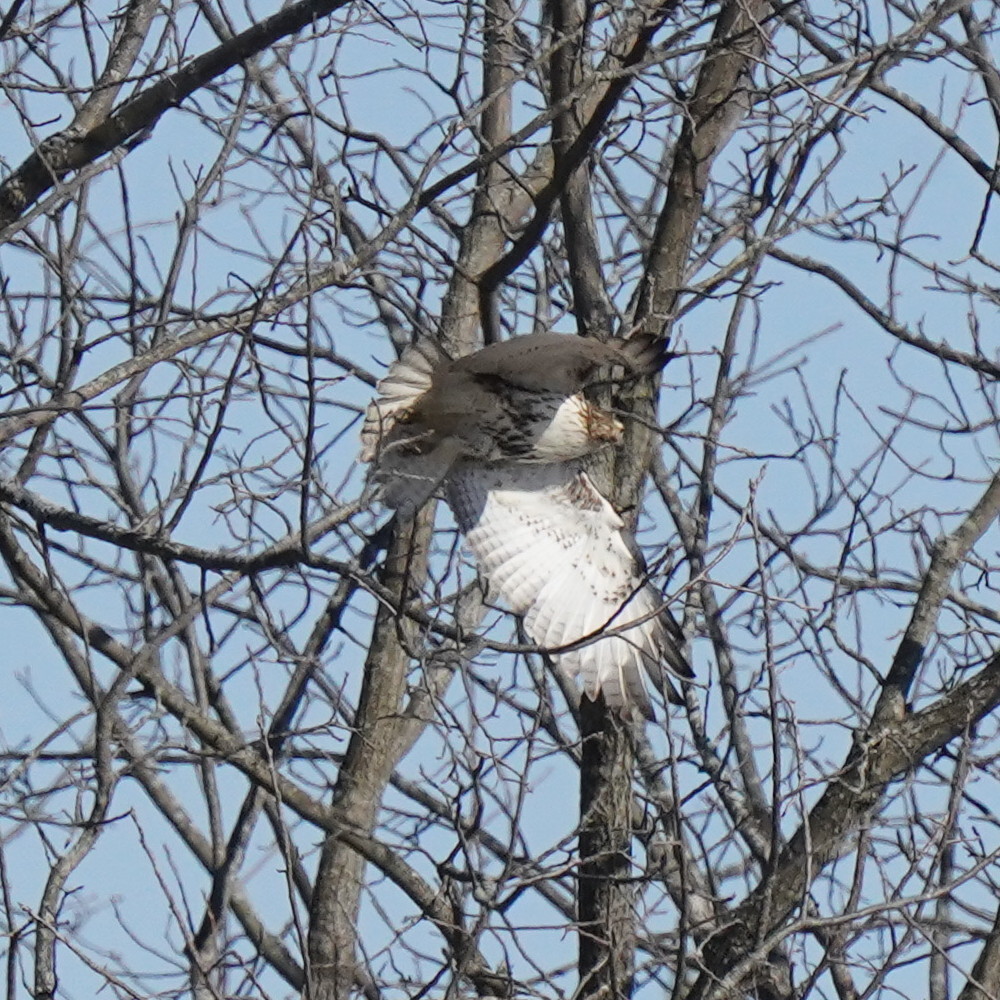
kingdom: Animalia
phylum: Chordata
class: Aves
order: Accipitriformes
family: Accipitridae
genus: Buteo
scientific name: Buteo jamaicensis
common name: Red-tailed hawk
